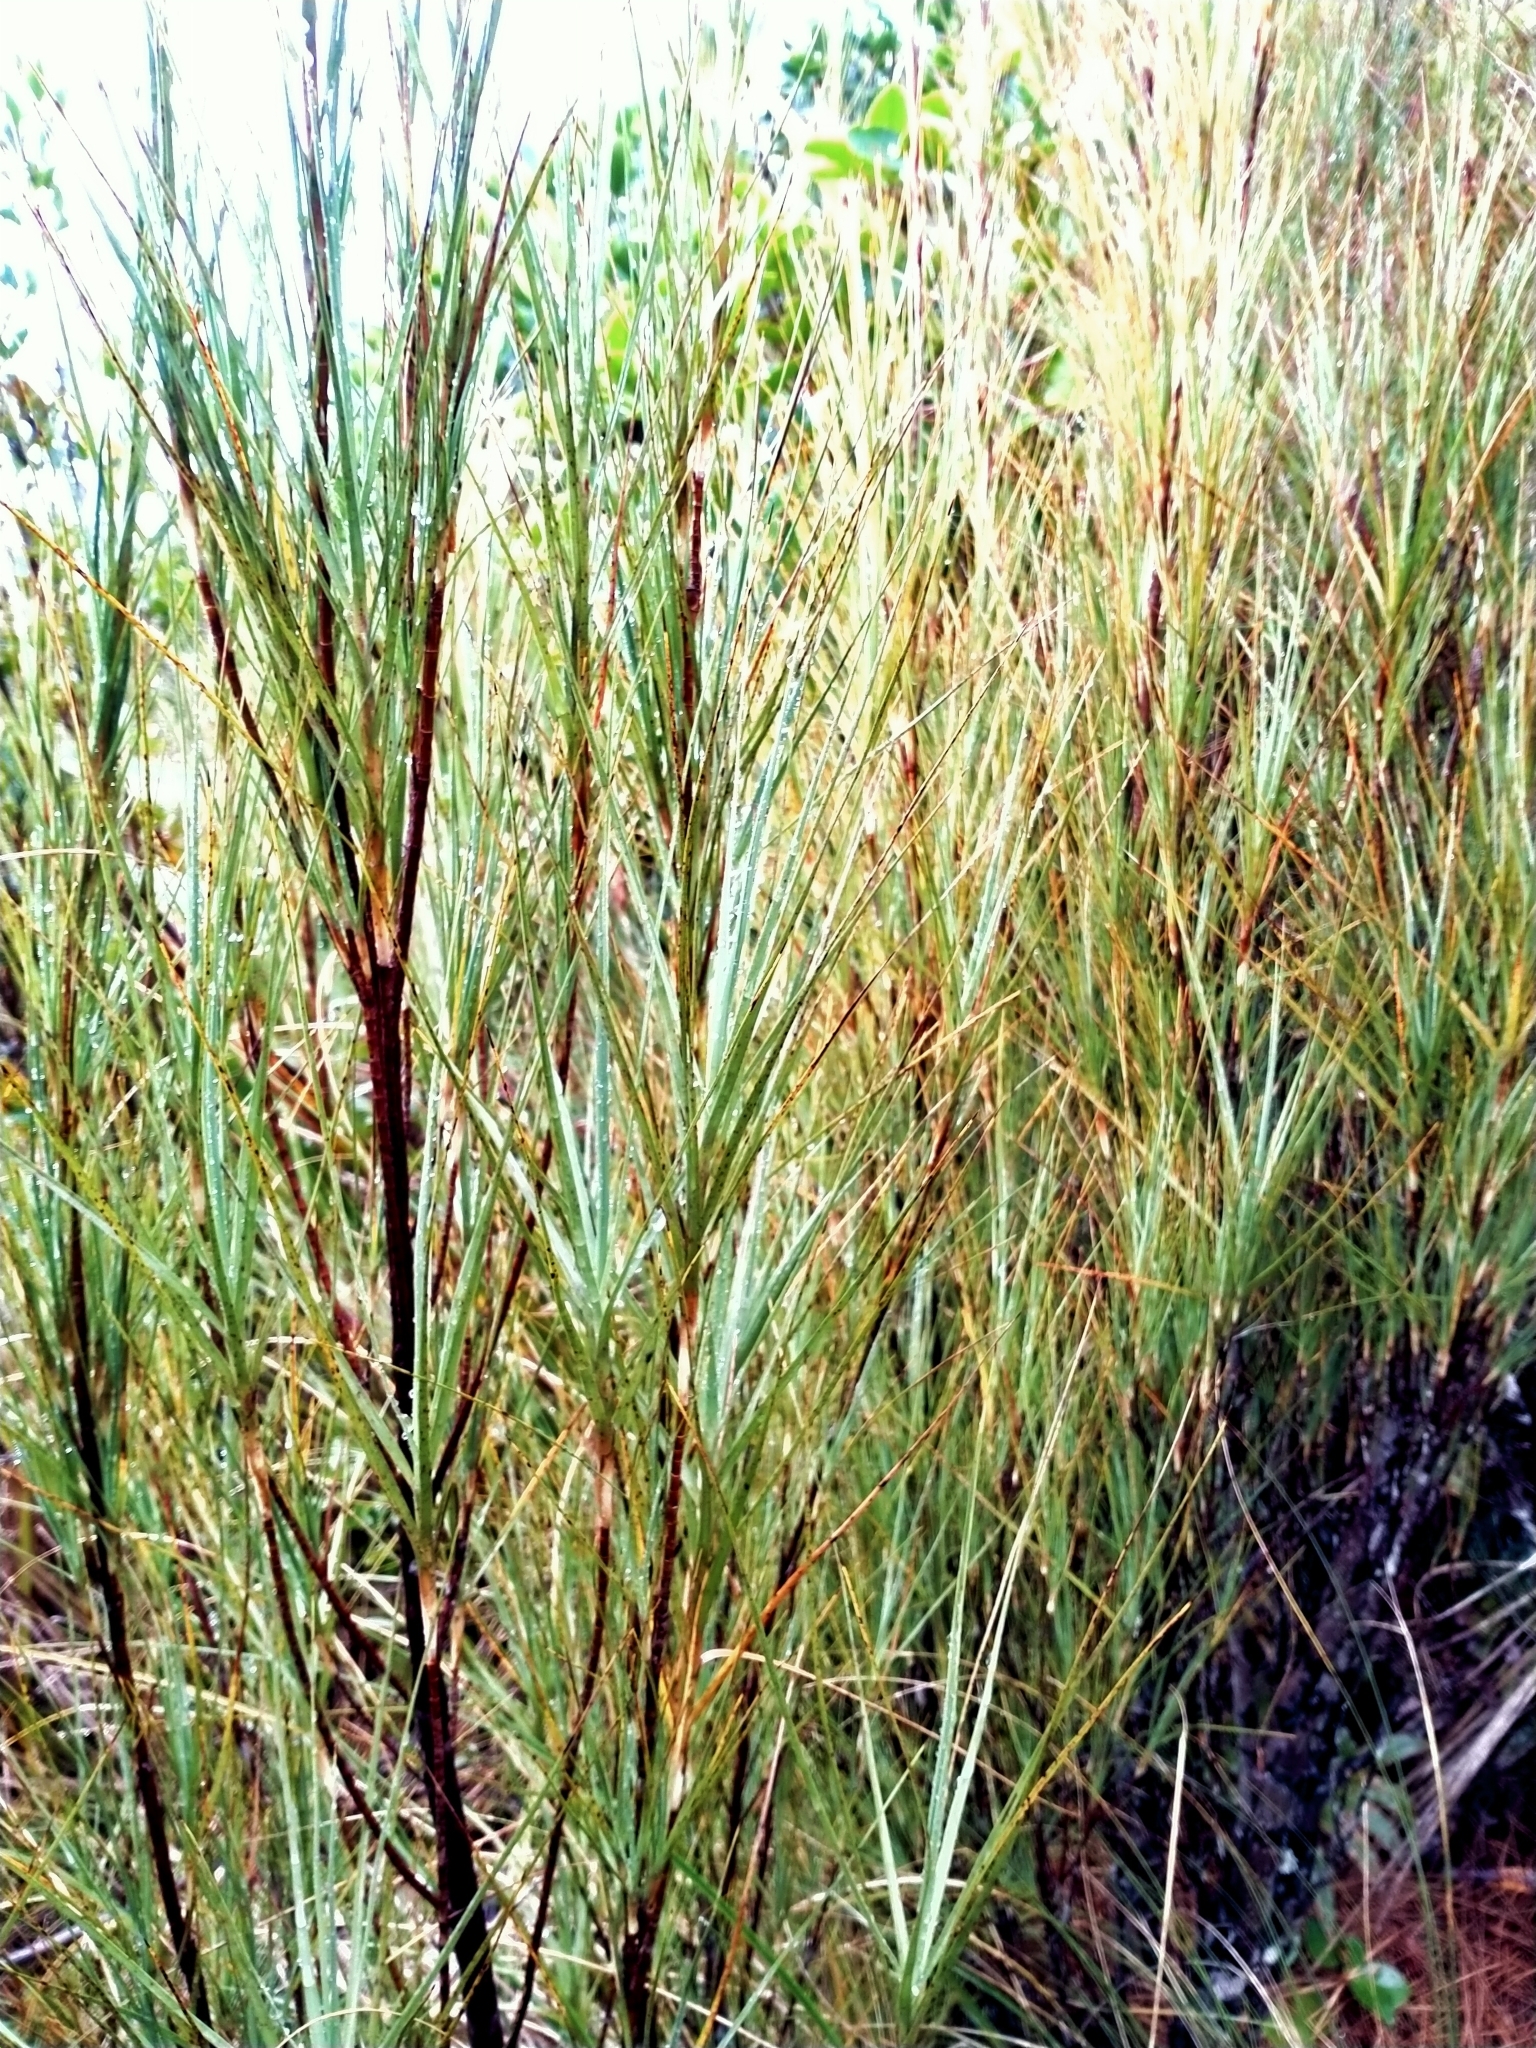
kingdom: Plantae
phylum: Tracheophyta
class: Magnoliopsida
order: Ericales
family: Ericaceae
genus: Dracophyllum
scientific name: Dracophyllum longifolium
